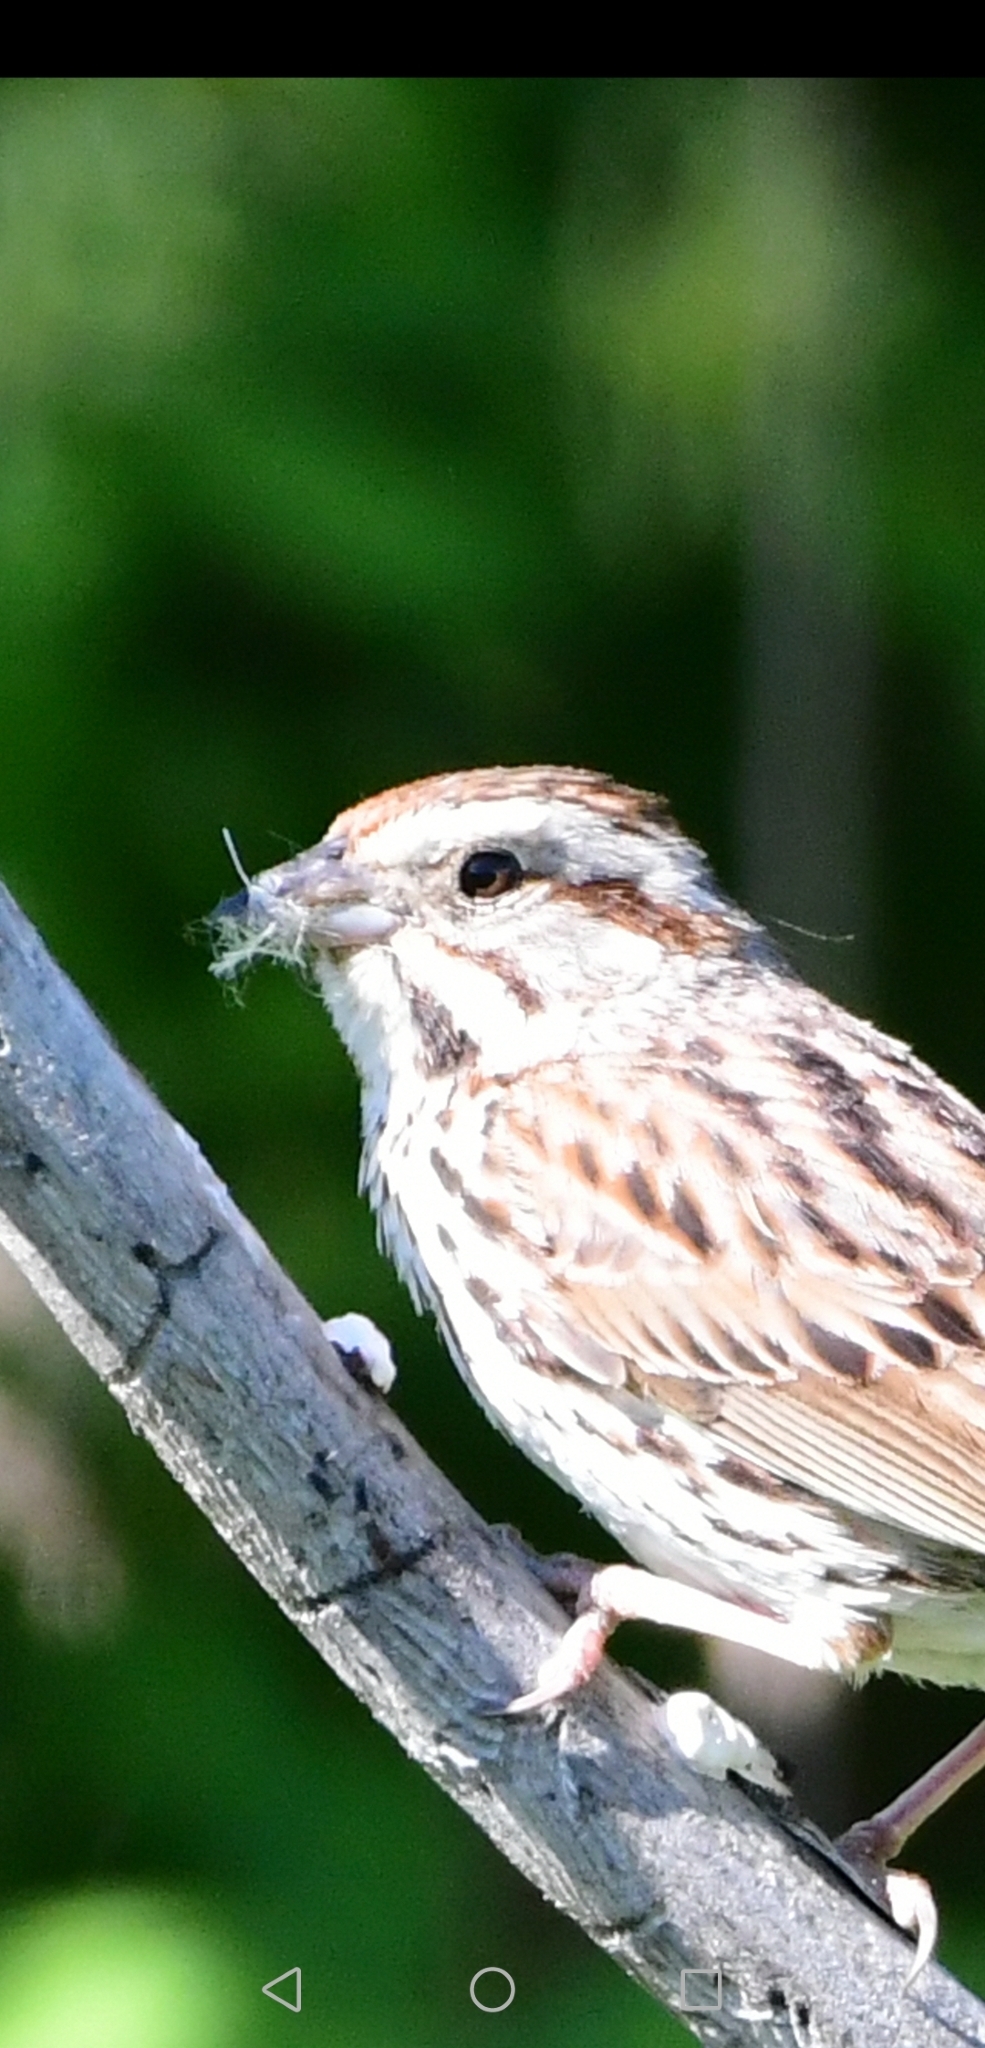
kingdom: Animalia
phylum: Chordata
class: Aves
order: Passeriformes
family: Passerellidae
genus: Melospiza
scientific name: Melospiza melodia
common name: Song sparrow
